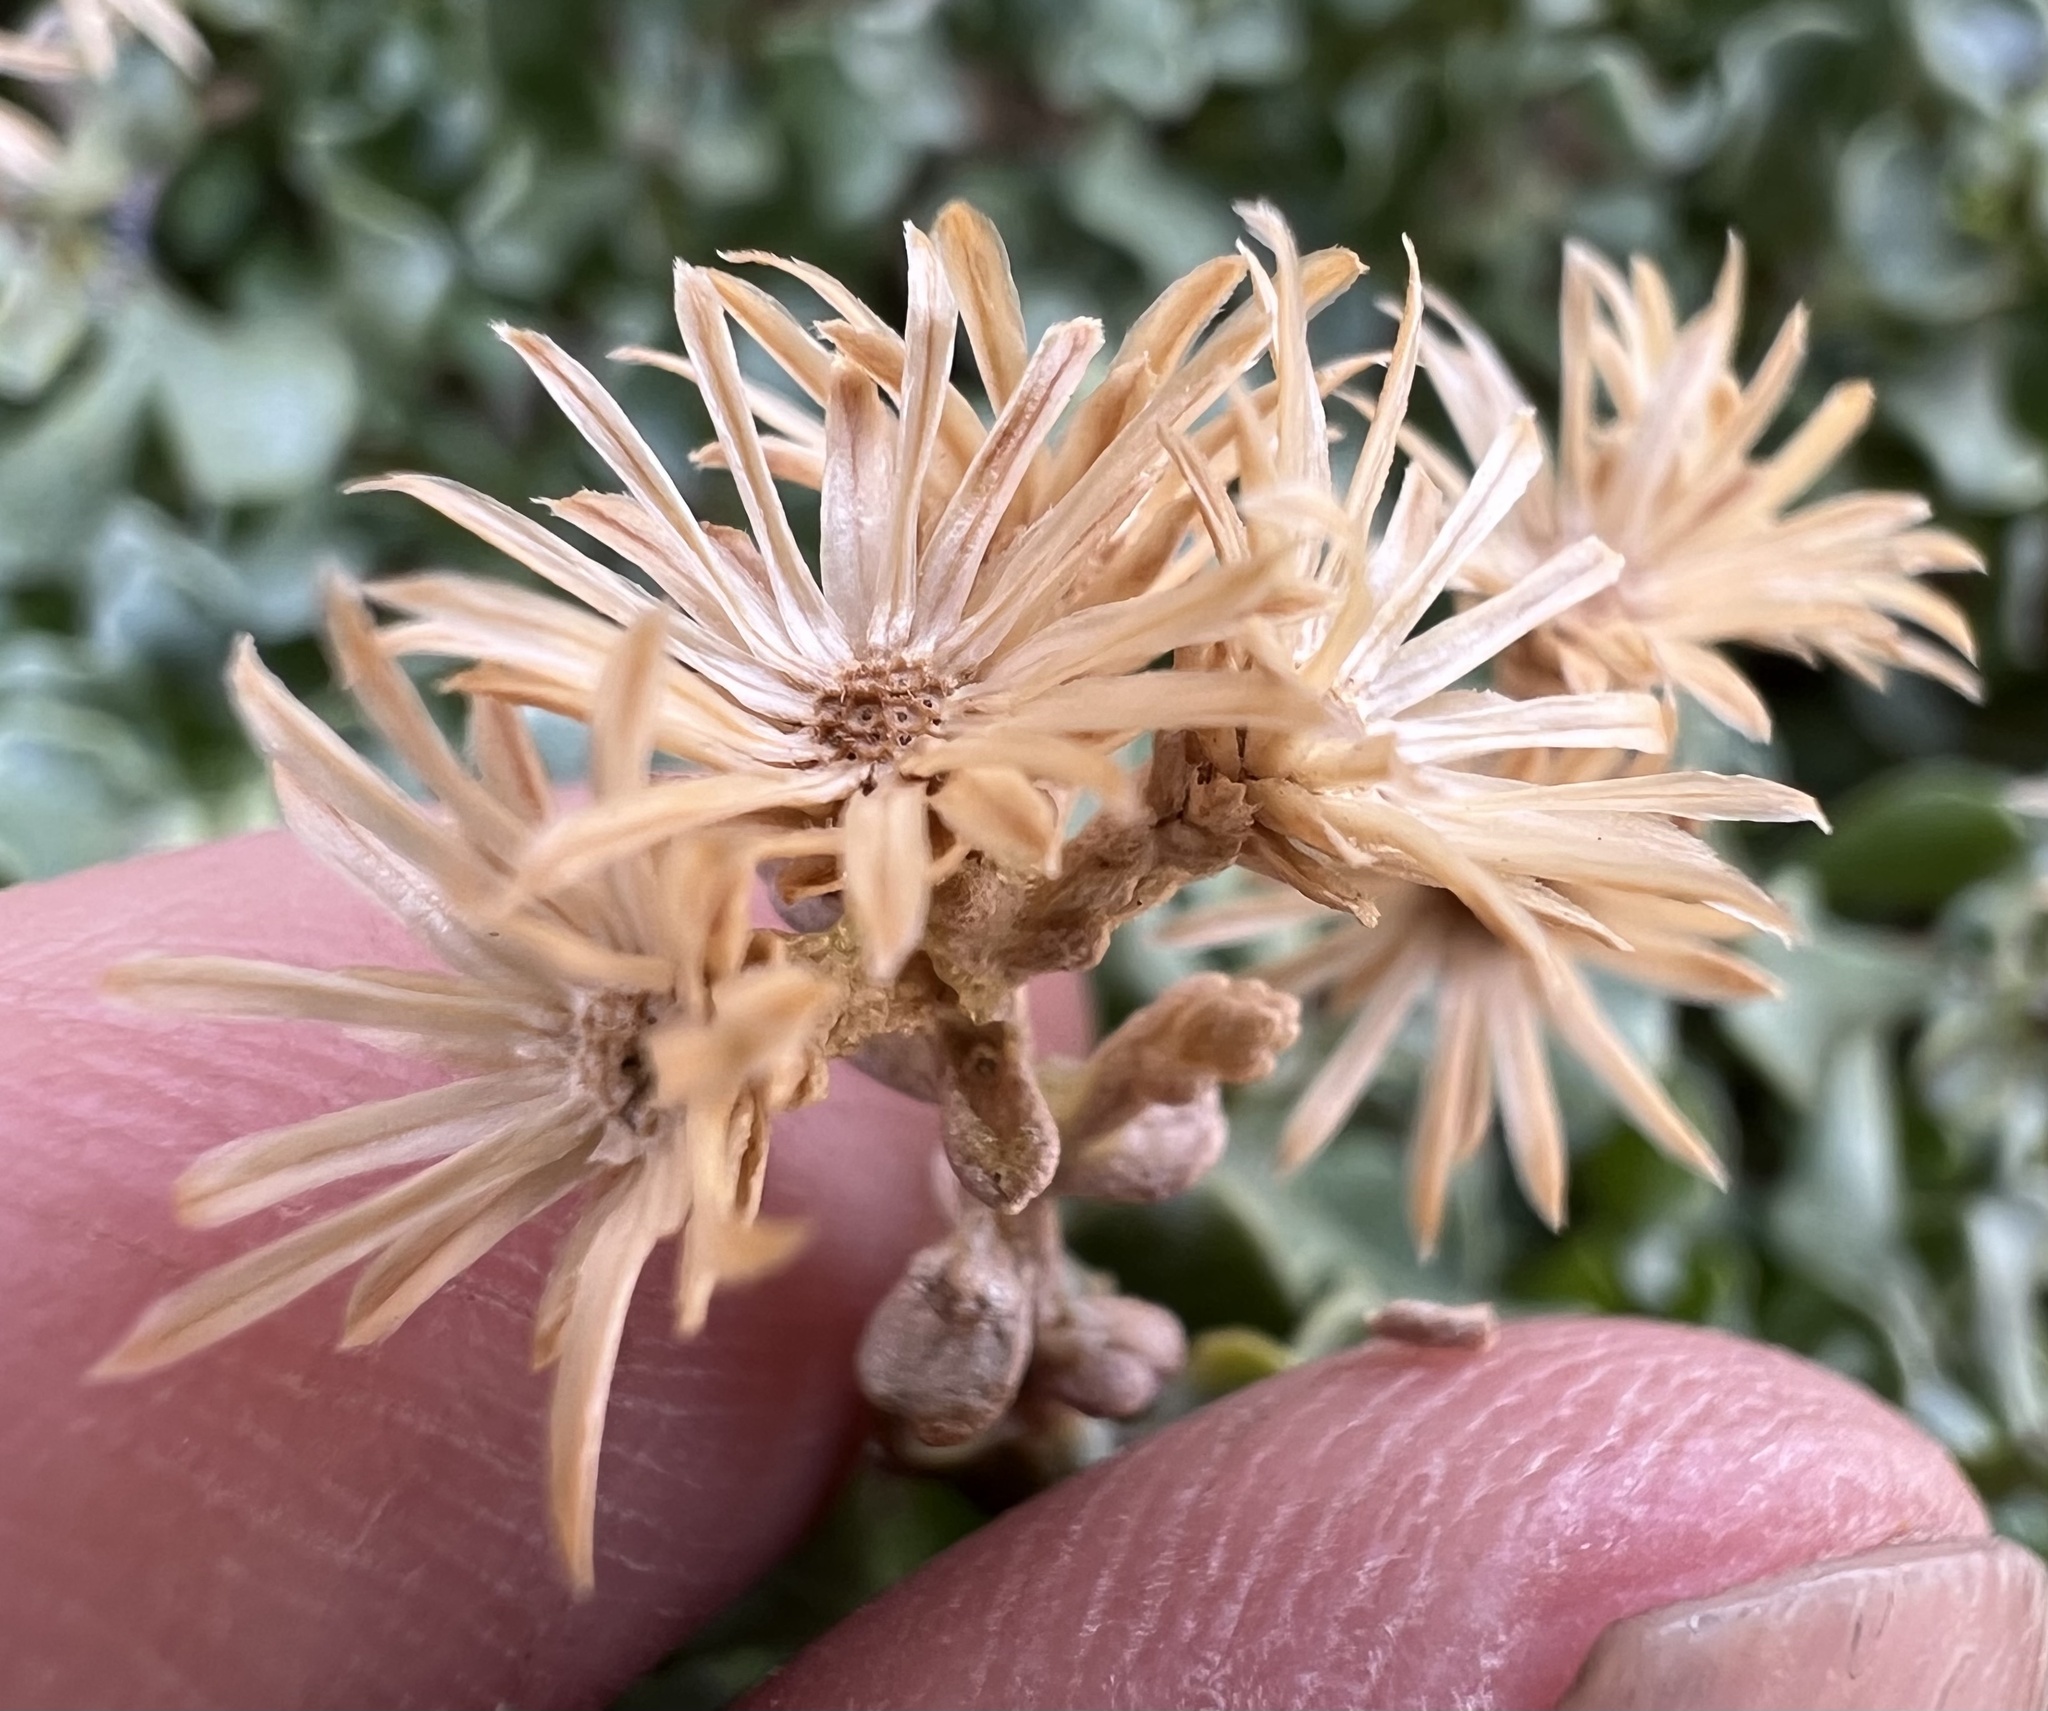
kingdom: Plantae
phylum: Tracheophyta
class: Magnoliopsida
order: Asterales
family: Asteraceae
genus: Ericameria
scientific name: Ericameria cuneata
